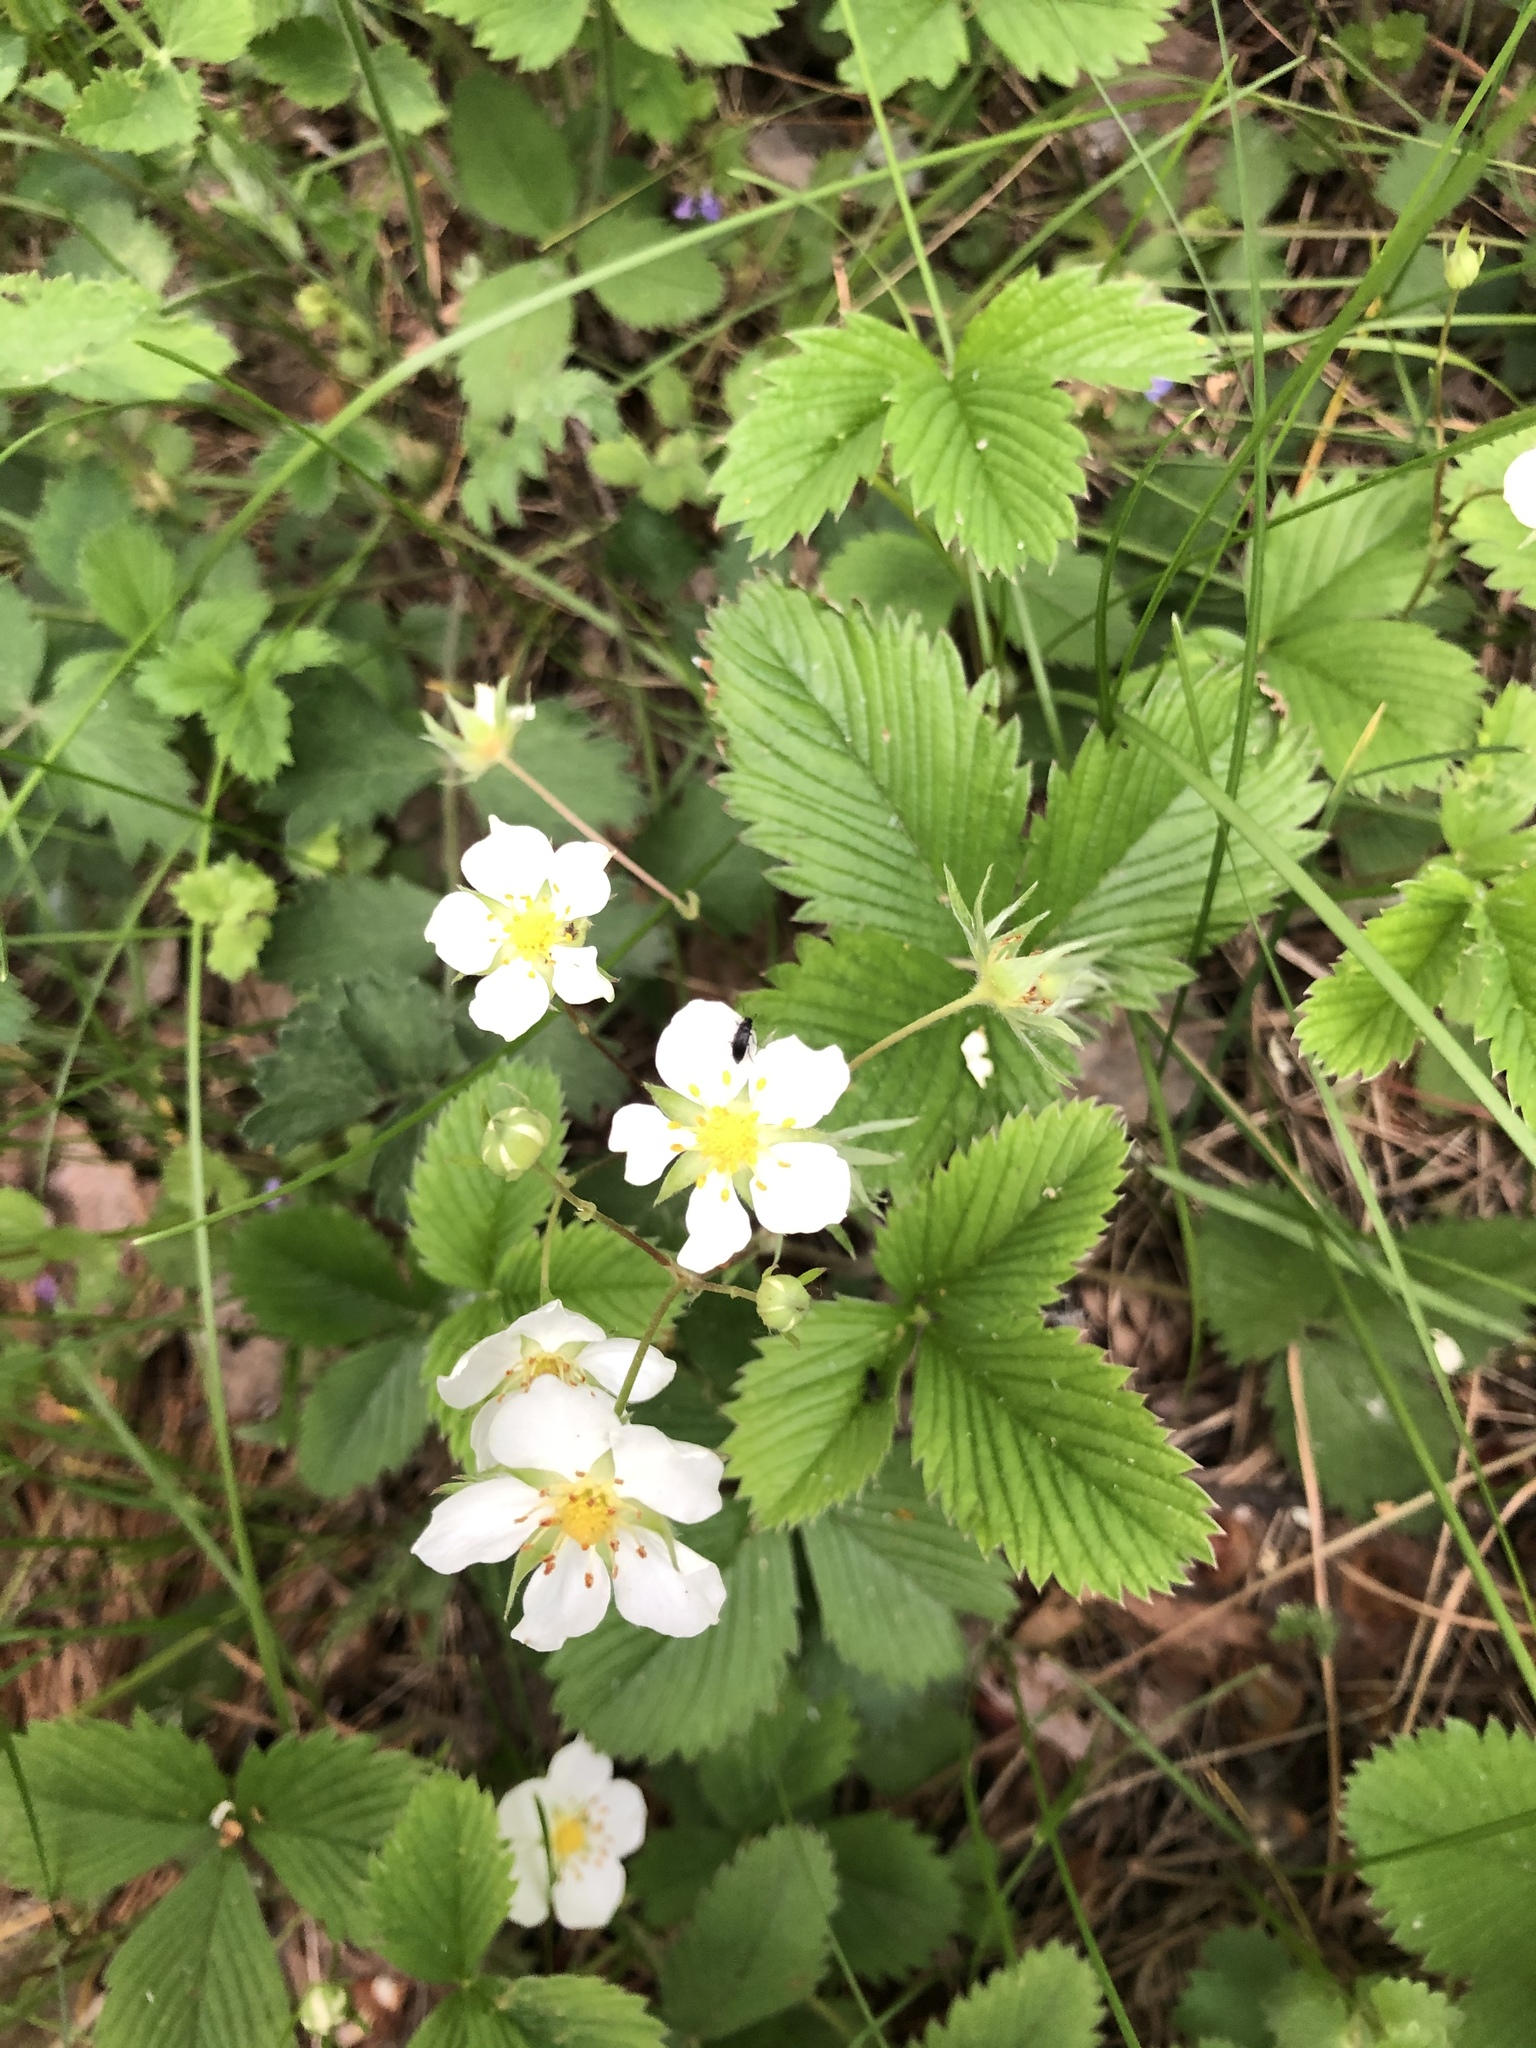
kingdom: Plantae
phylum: Tracheophyta
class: Magnoliopsida
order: Rosales
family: Rosaceae
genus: Fragaria
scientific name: Fragaria viridis
